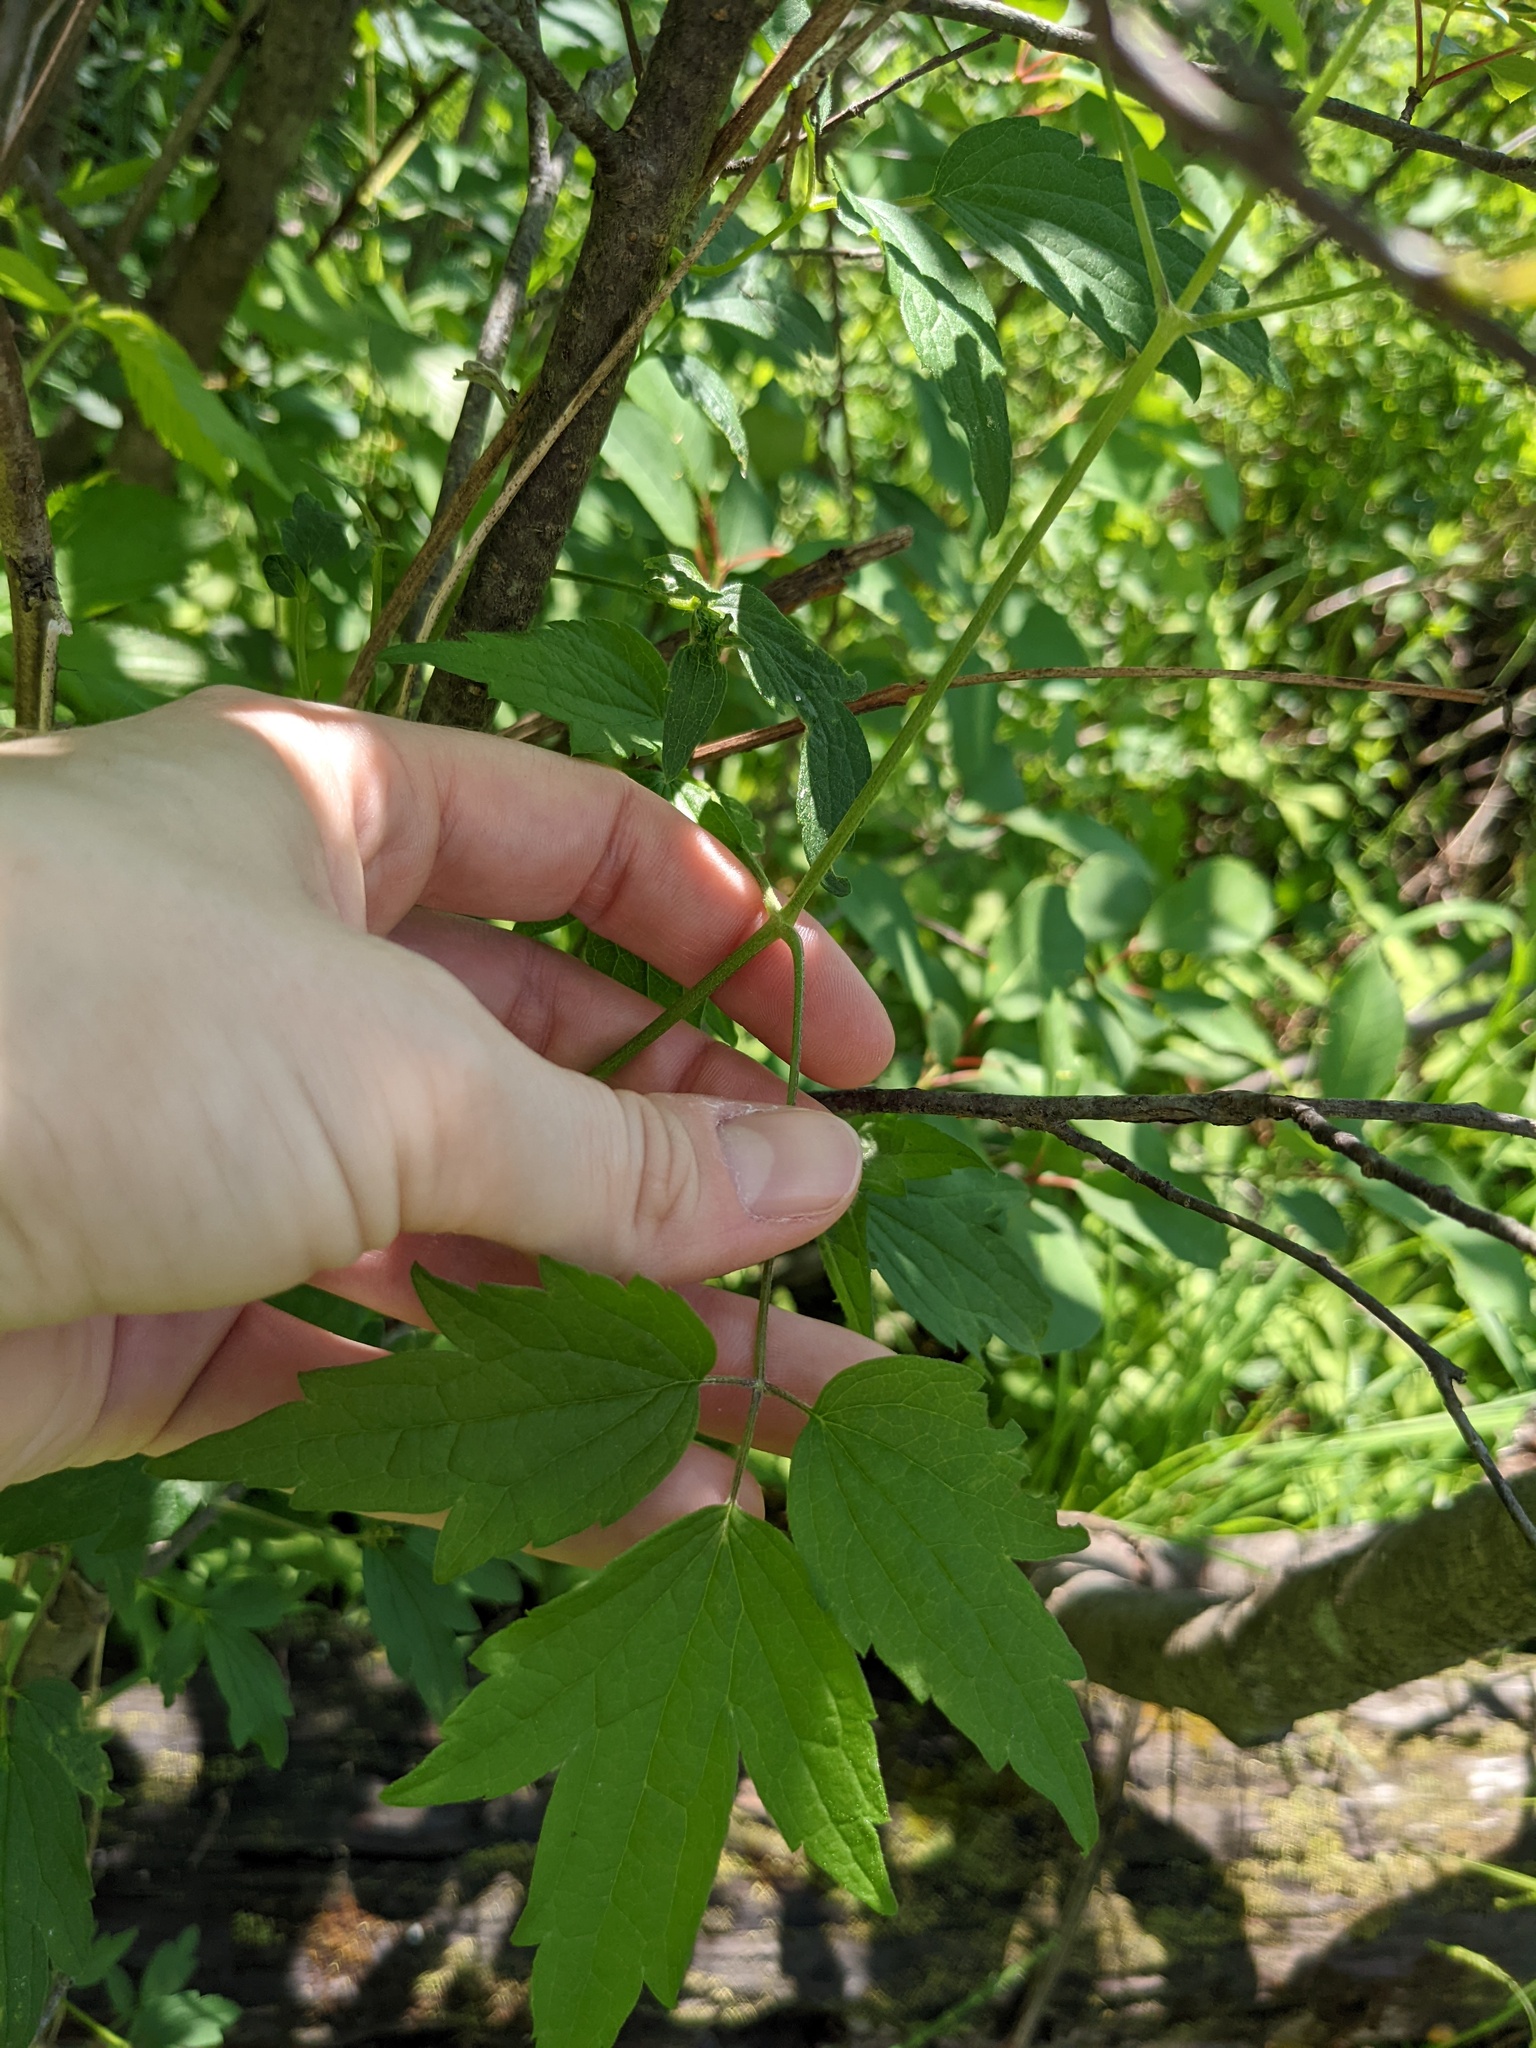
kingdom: Plantae
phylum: Tracheophyta
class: Magnoliopsida
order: Ranunculales
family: Ranunculaceae
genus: Clematis
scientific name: Clematis virginiana
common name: Virgin's-bower
